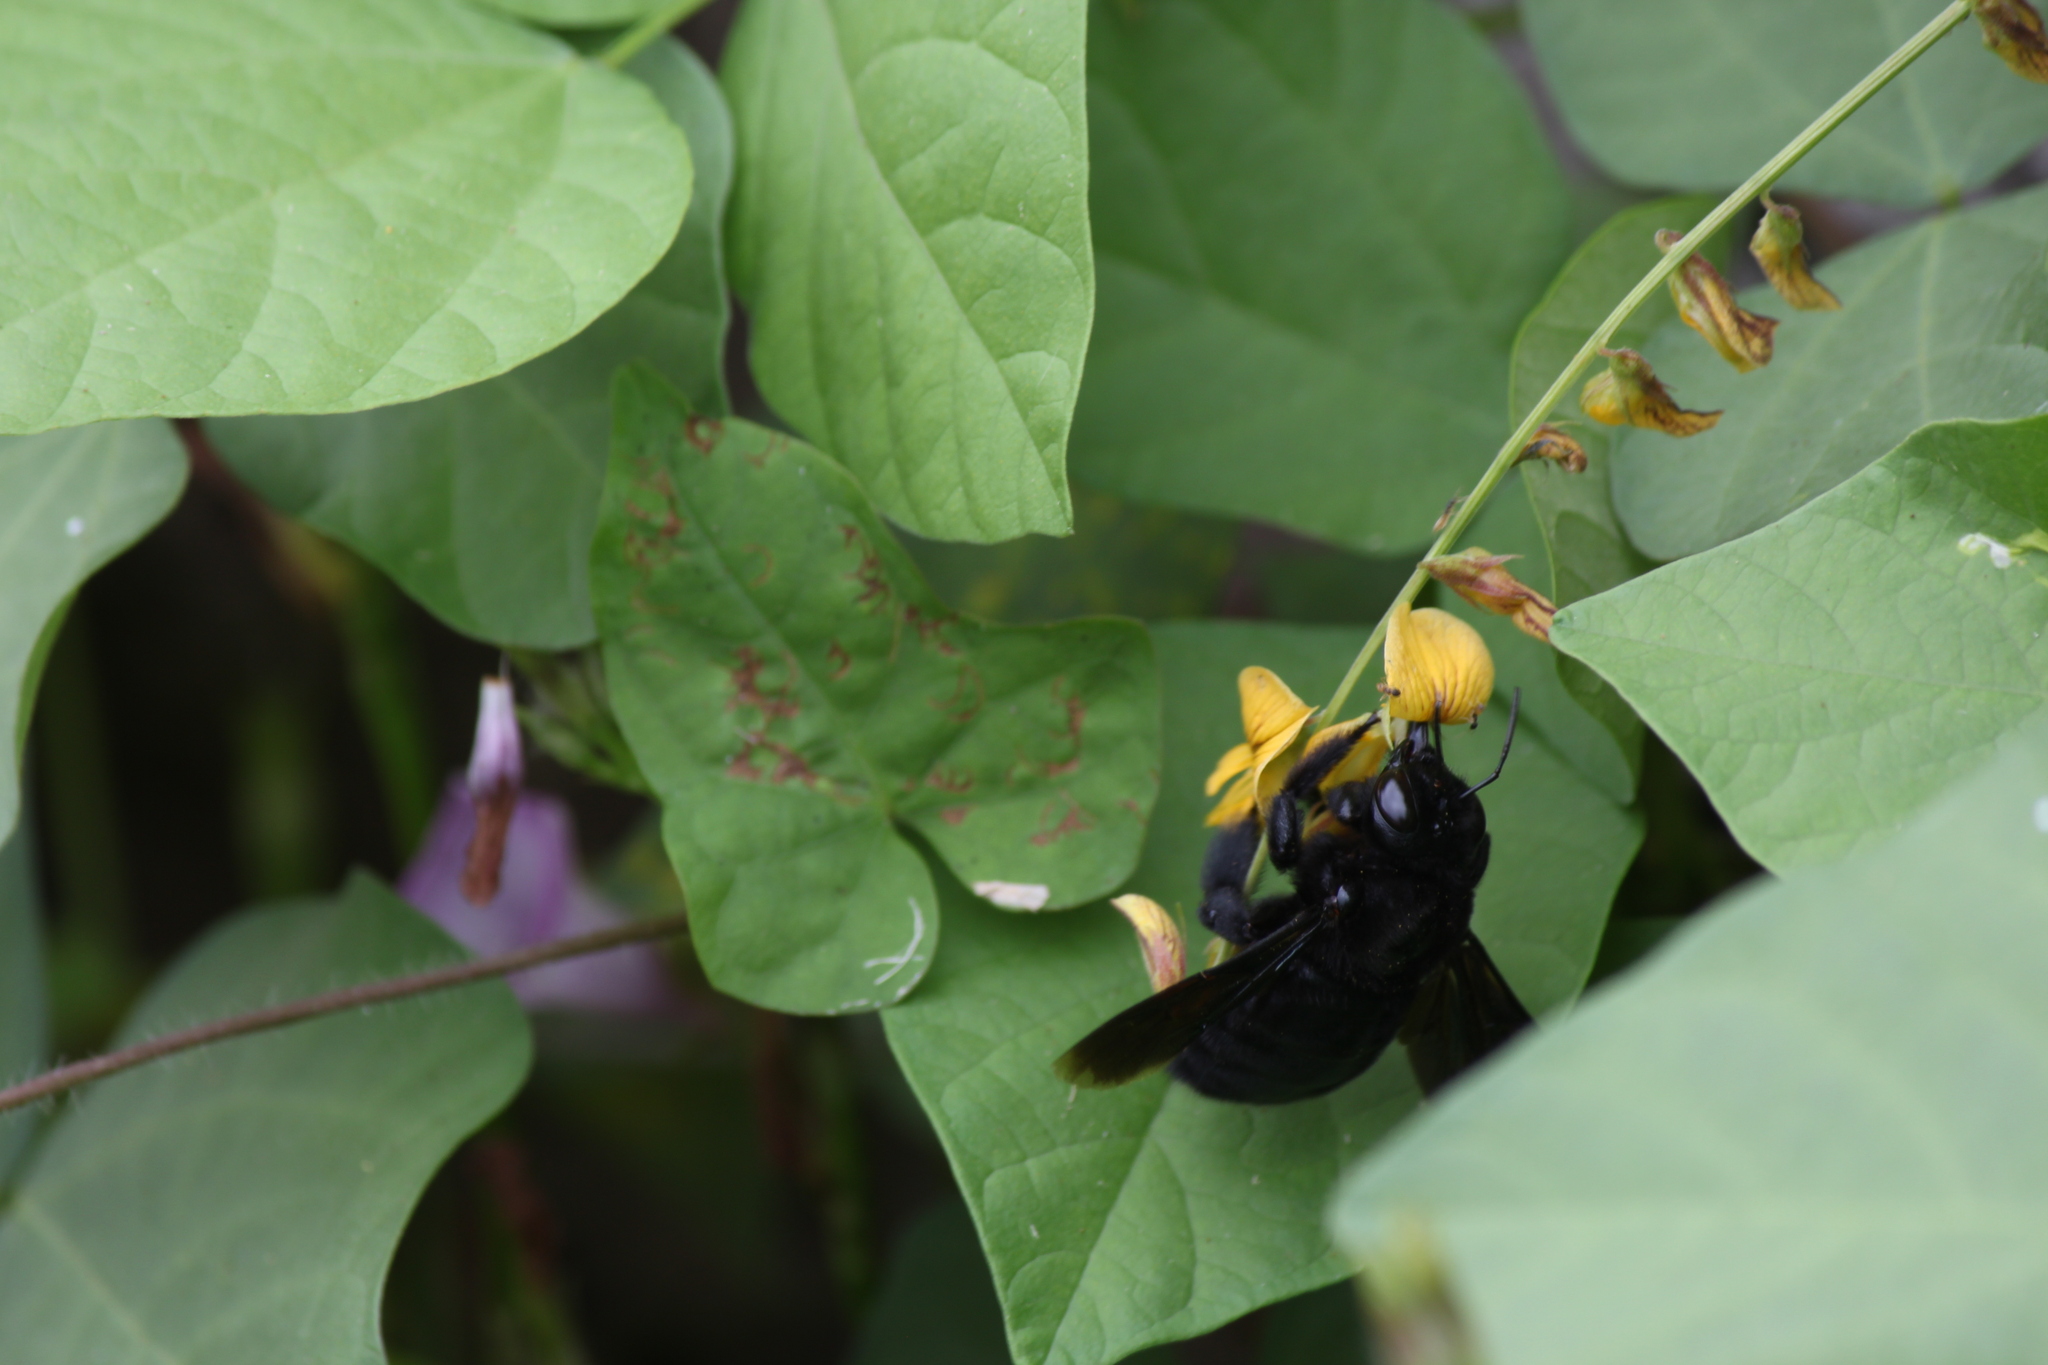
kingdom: Animalia
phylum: Arthropoda
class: Insecta
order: Hymenoptera
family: Apidae
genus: Xylocopa
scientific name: Xylocopa darwini
